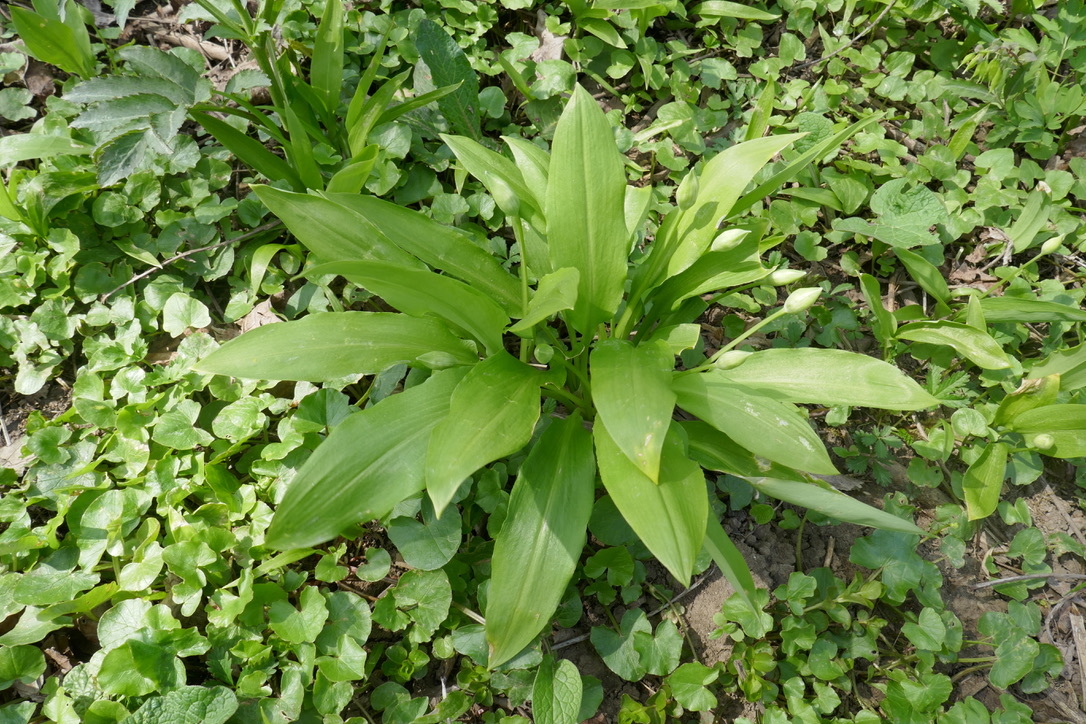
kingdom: Plantae
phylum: Tracheophyta
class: Liliopsida
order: Asparagales
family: Amaryllidaceae
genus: Allium
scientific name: Allium ursinum
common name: Ramsons
